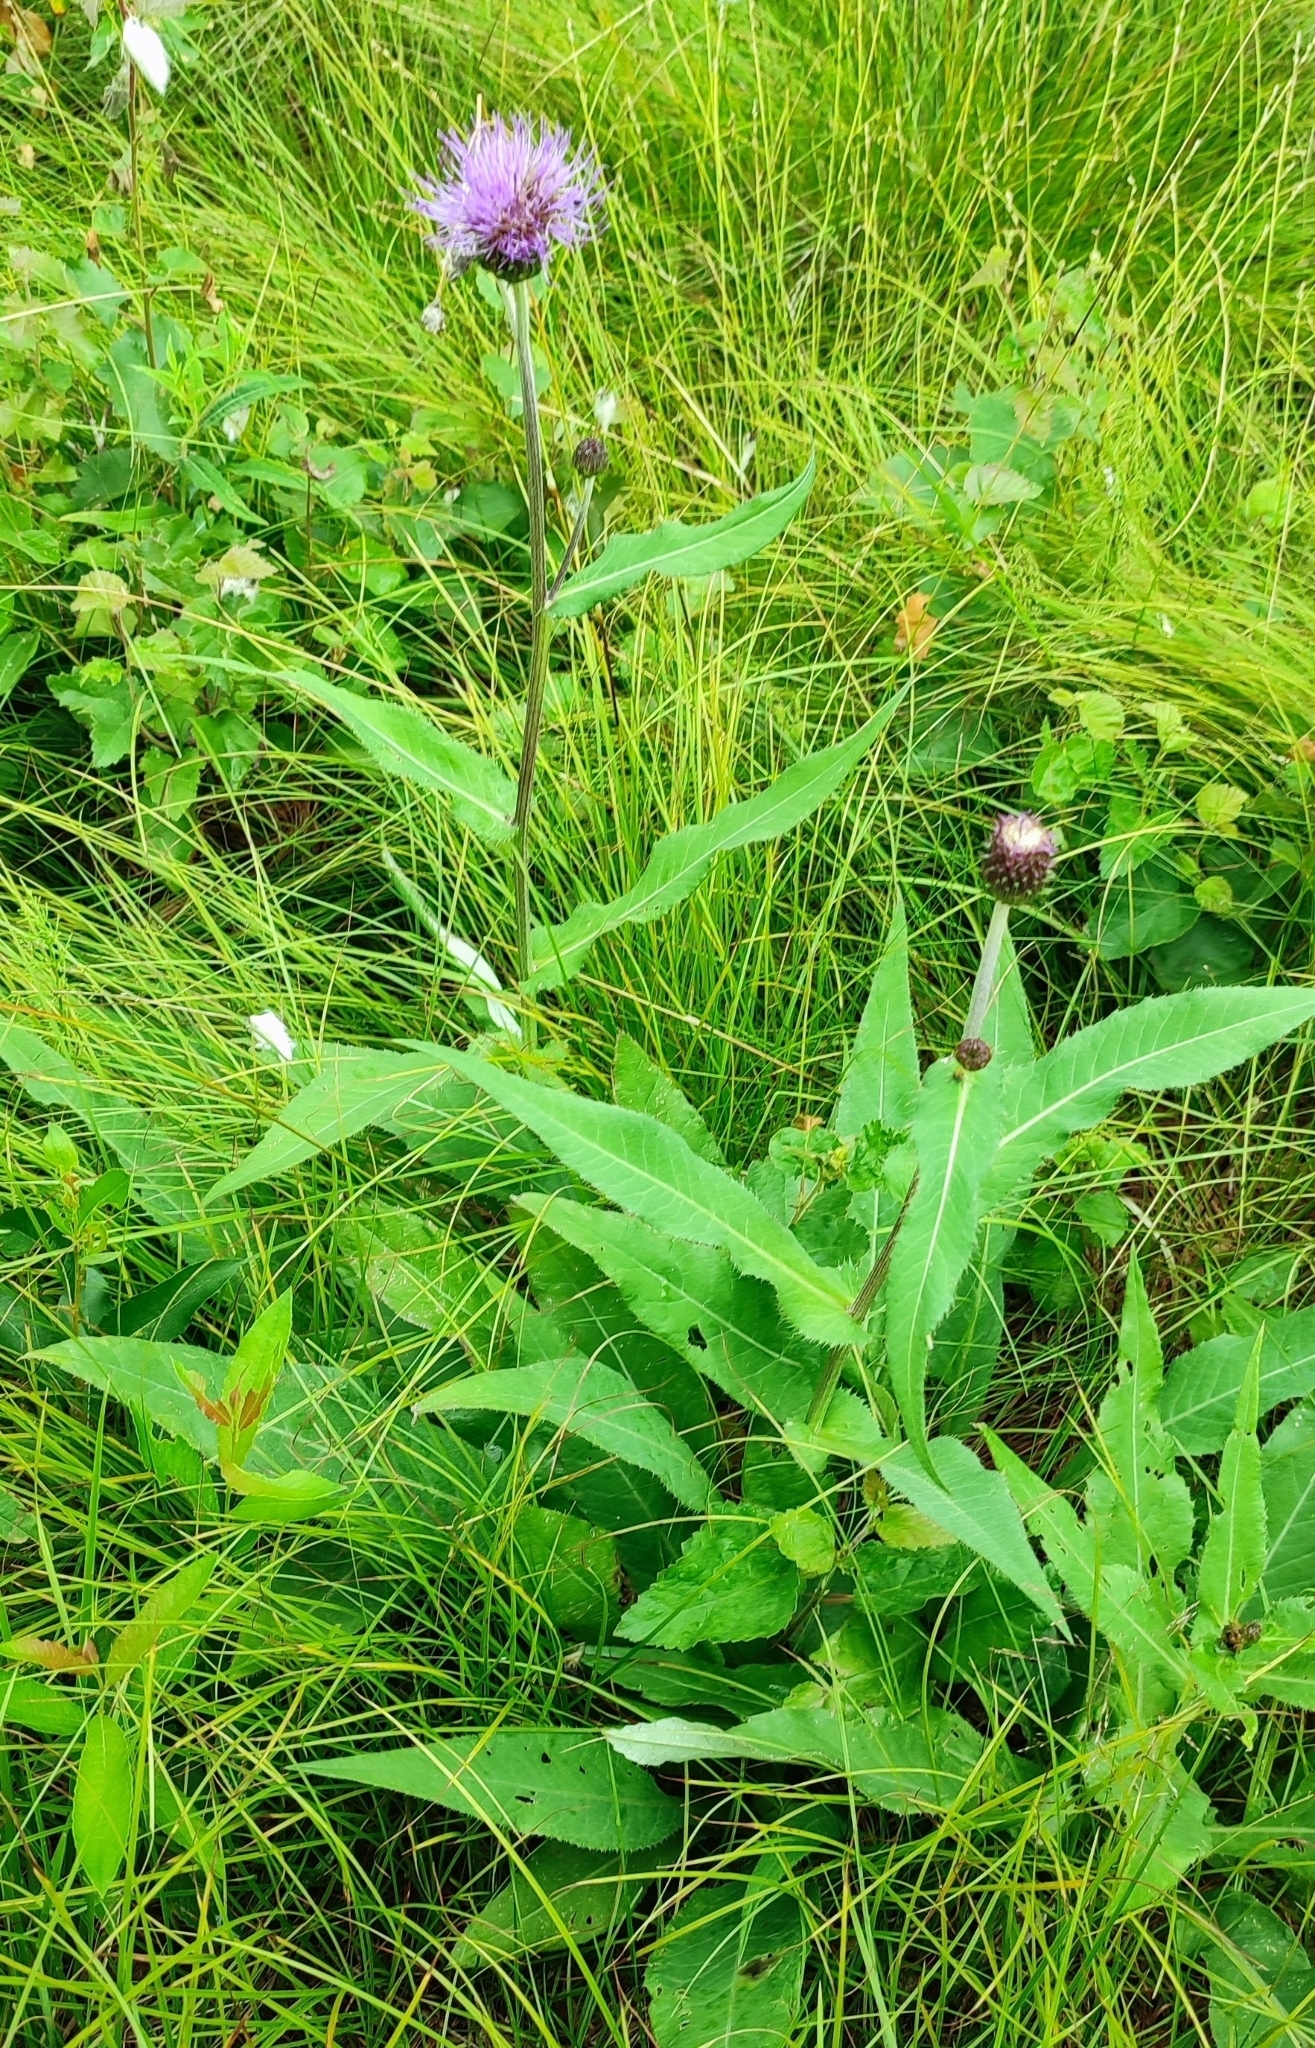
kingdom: Plantae
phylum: Tracheophyta
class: Magnoliopsida
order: Asterales
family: Asteraceae
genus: Cirsium
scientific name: Cirsium heterophyllum
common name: Melancholy thistle
